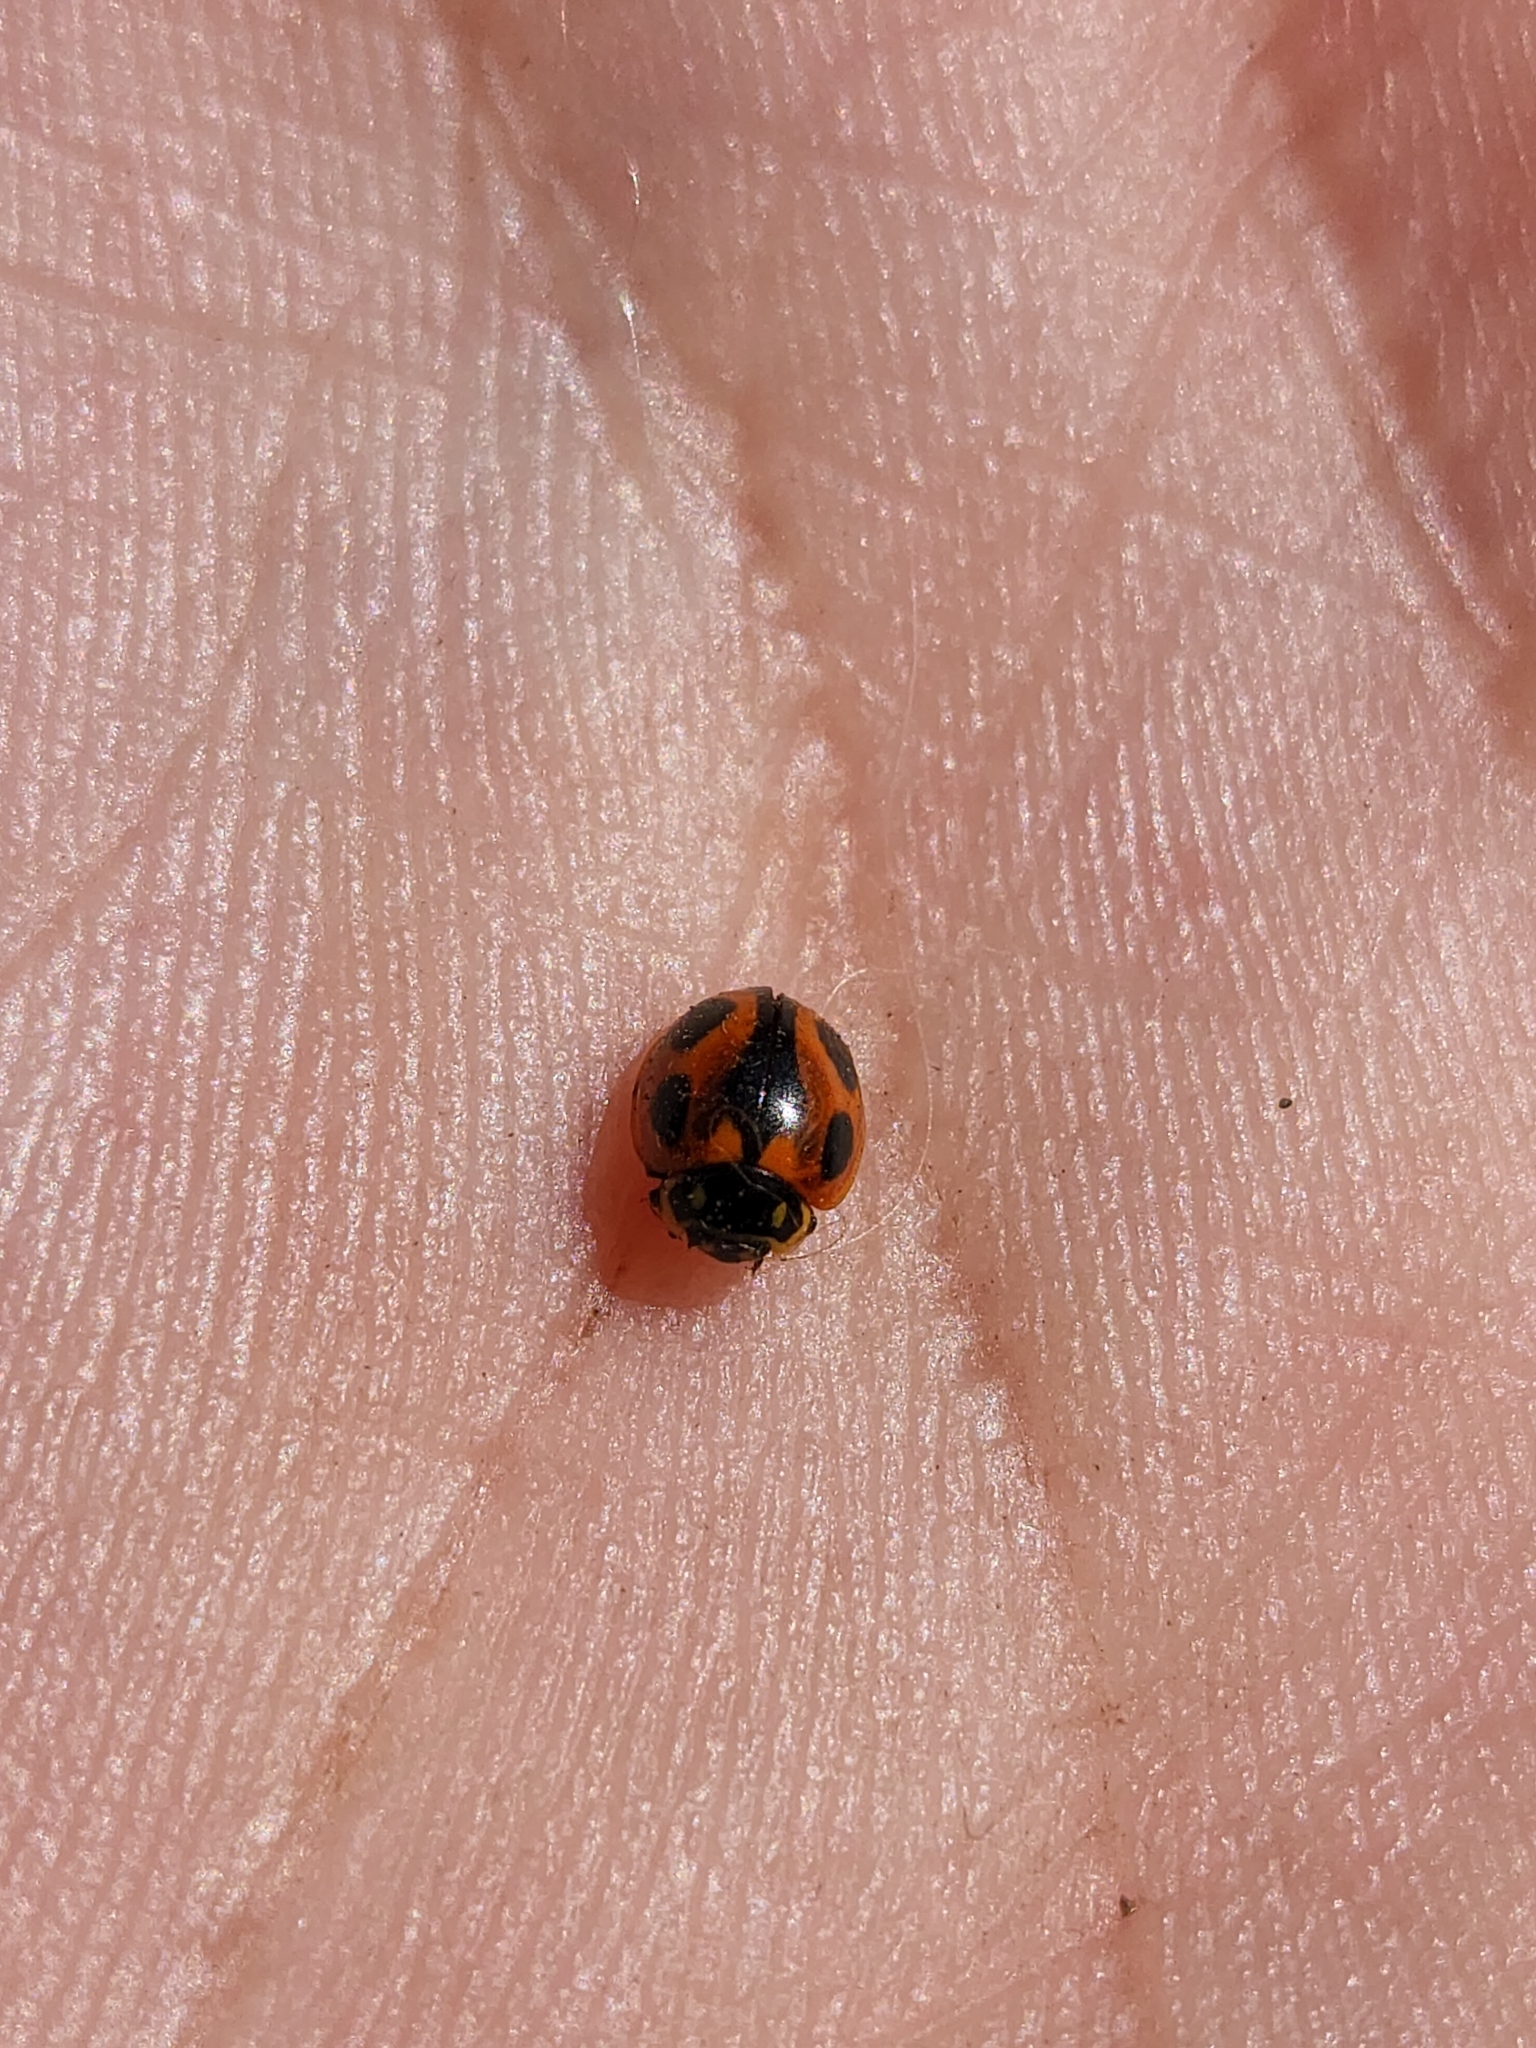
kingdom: Animalia
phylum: Arthropoda
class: Insecta
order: Coleoptera
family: Coccinellidae
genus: Cycloneda
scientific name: Cycloneda ancoralis
